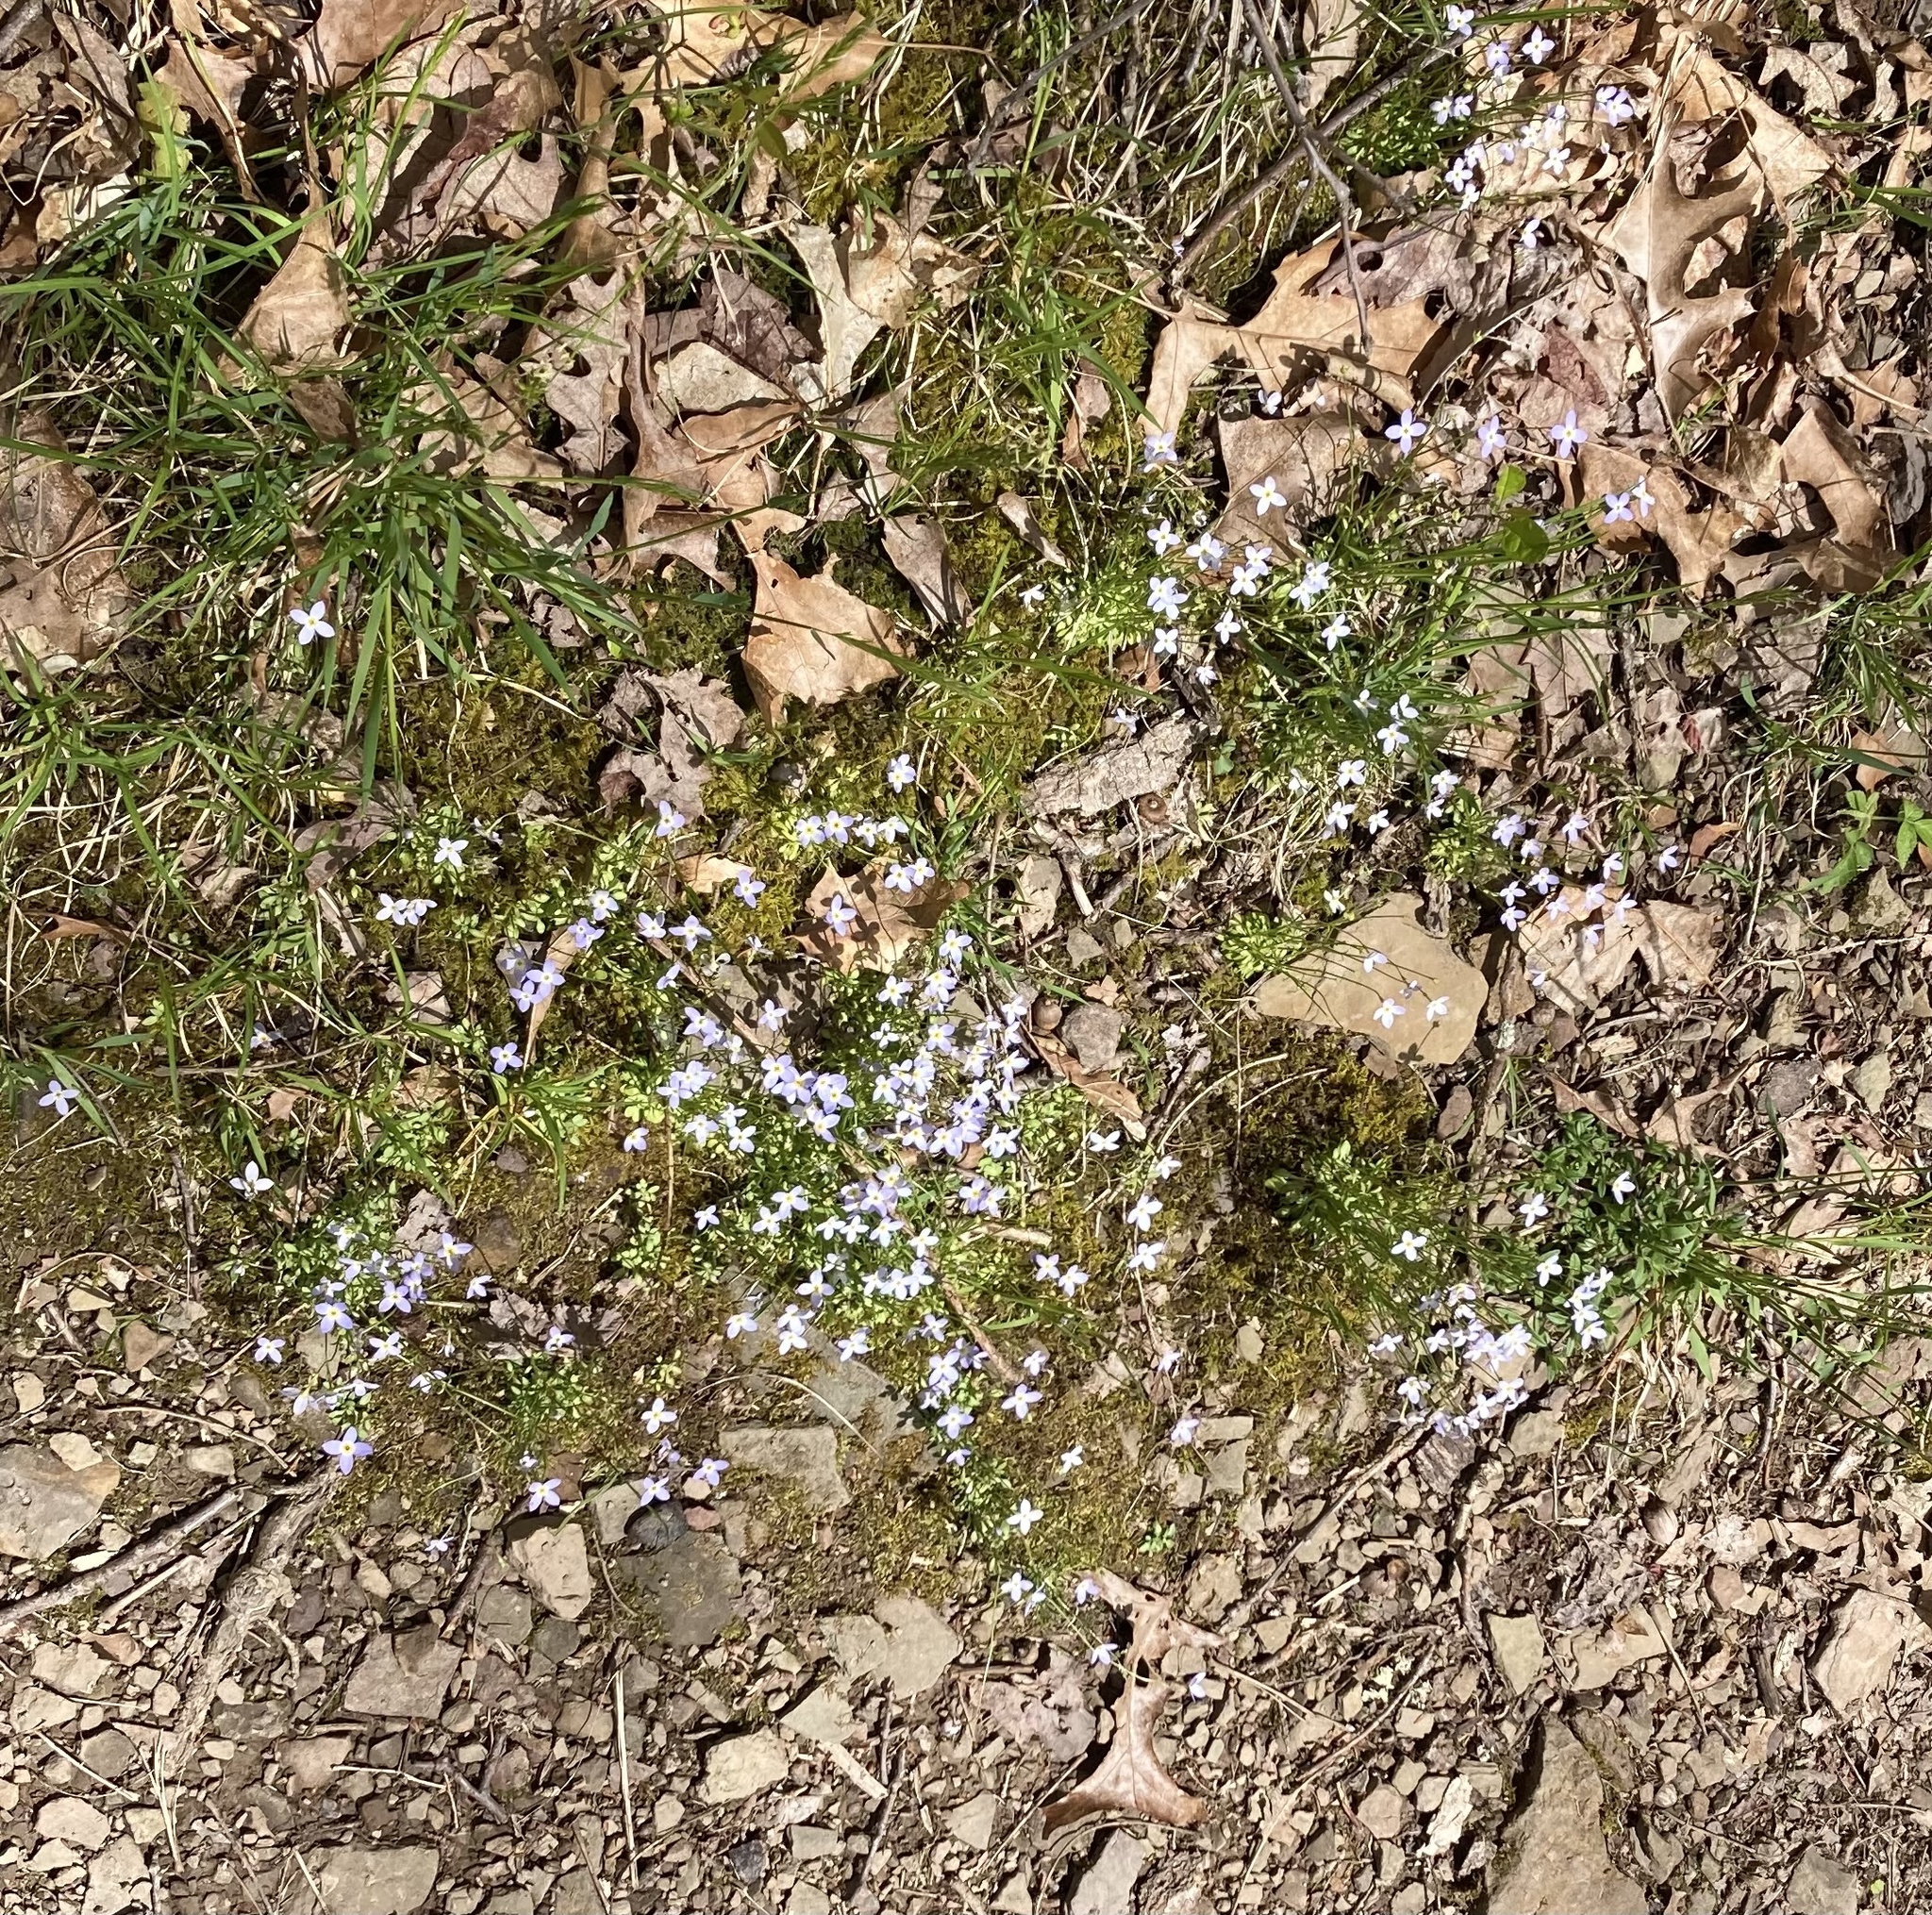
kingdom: Plantae
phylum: Tracheophyta
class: Magnoliopsida
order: Gentianales
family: Rubiaceae
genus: Houstonia
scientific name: Houstonia caerulea
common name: Bluets
